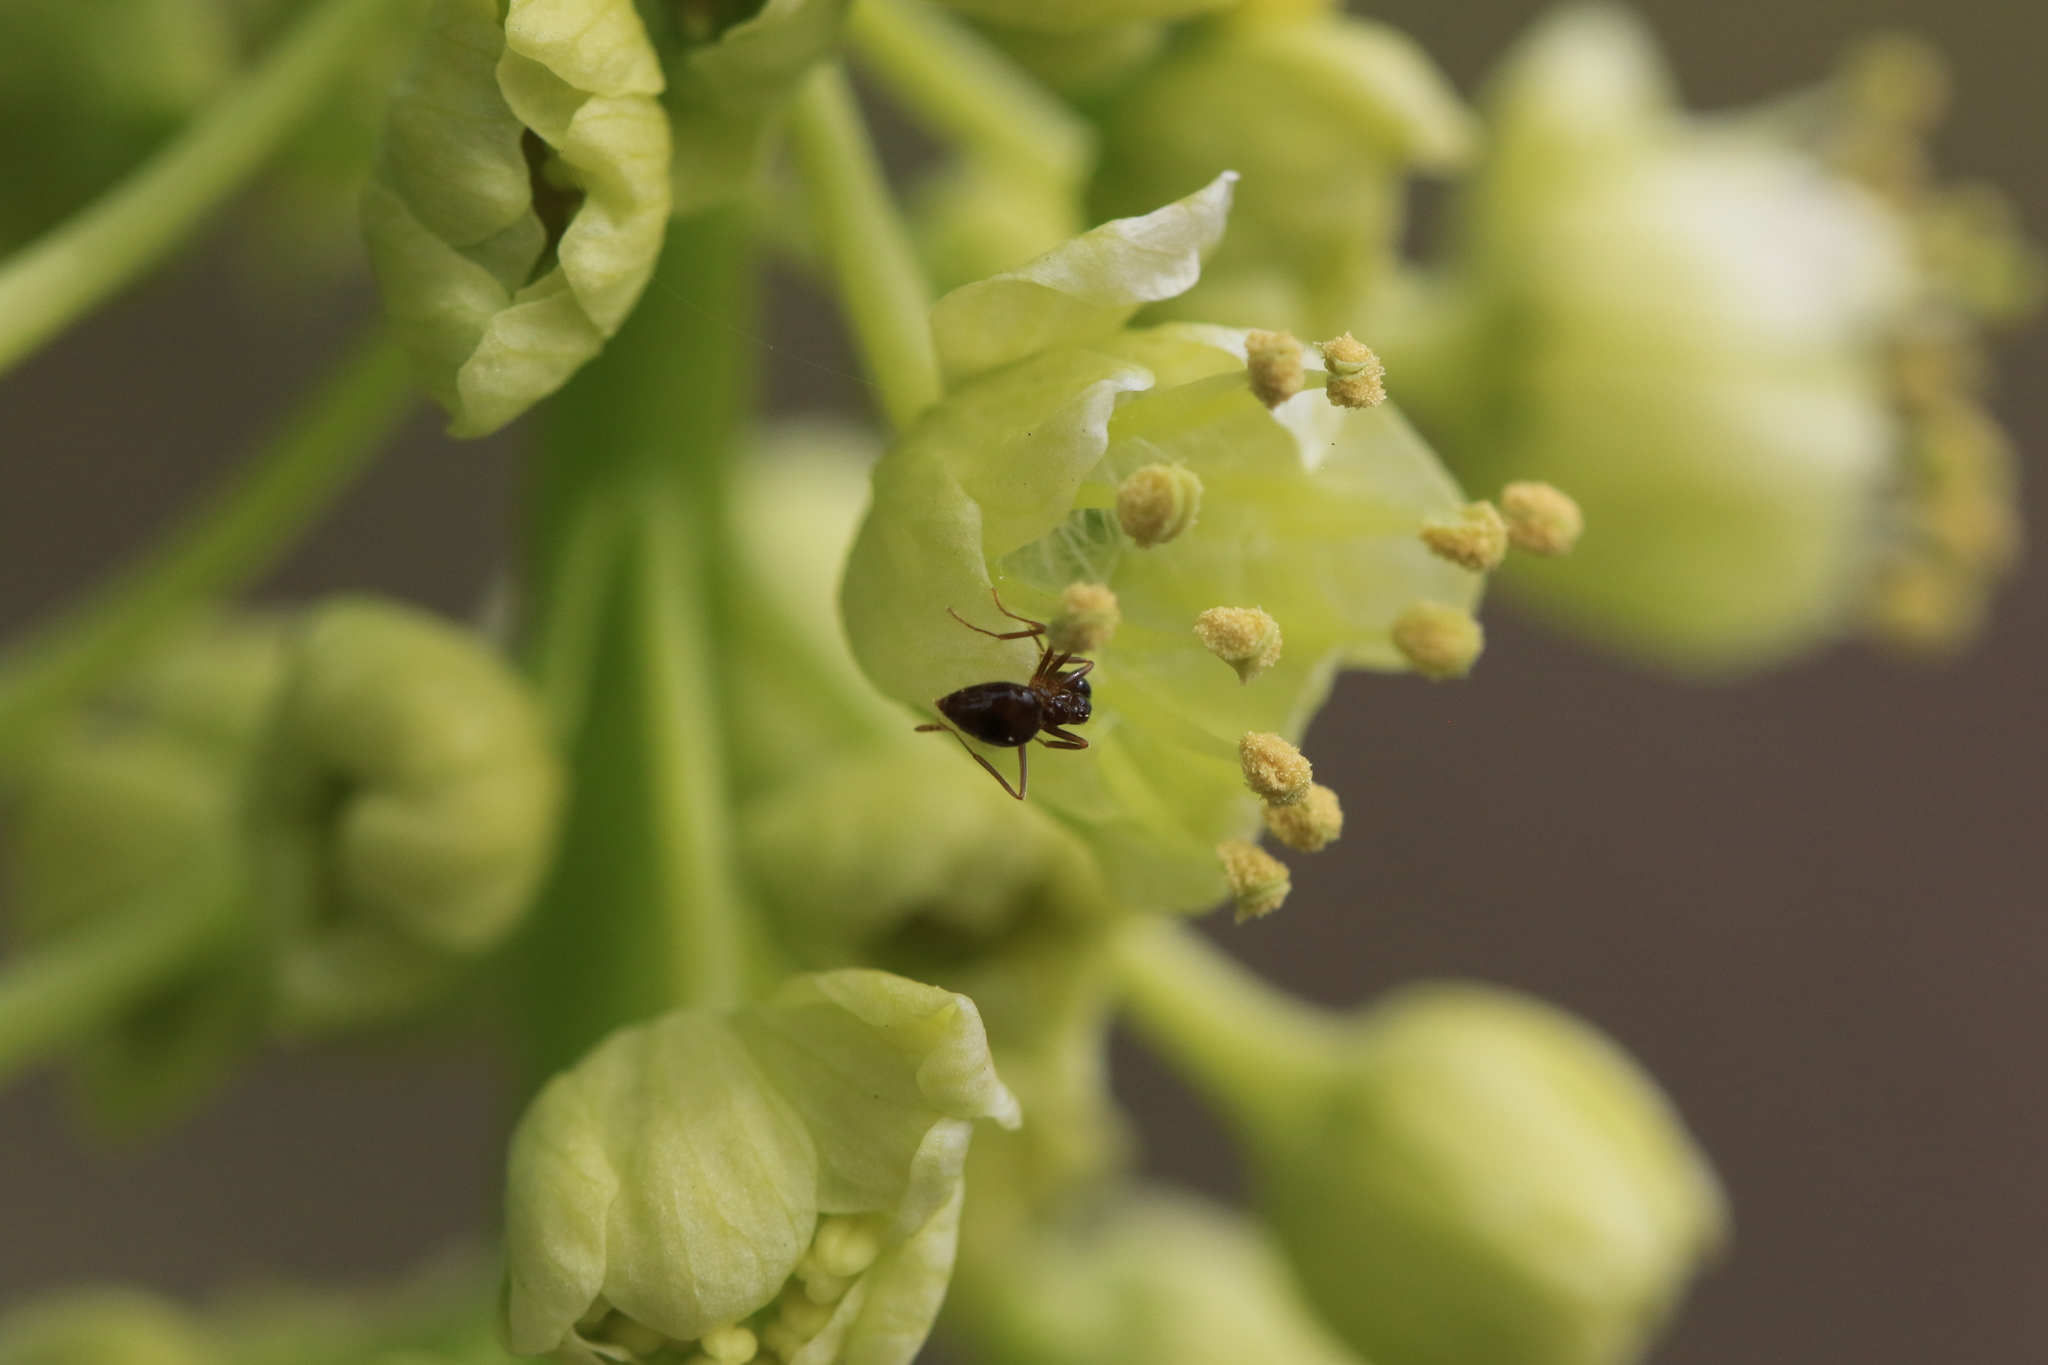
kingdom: Animalia
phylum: Arthropoda
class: Insecta
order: Hymenoptera
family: Formicidae
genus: Prenolepis
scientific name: Prenolepis imparis
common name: Small honey ant
